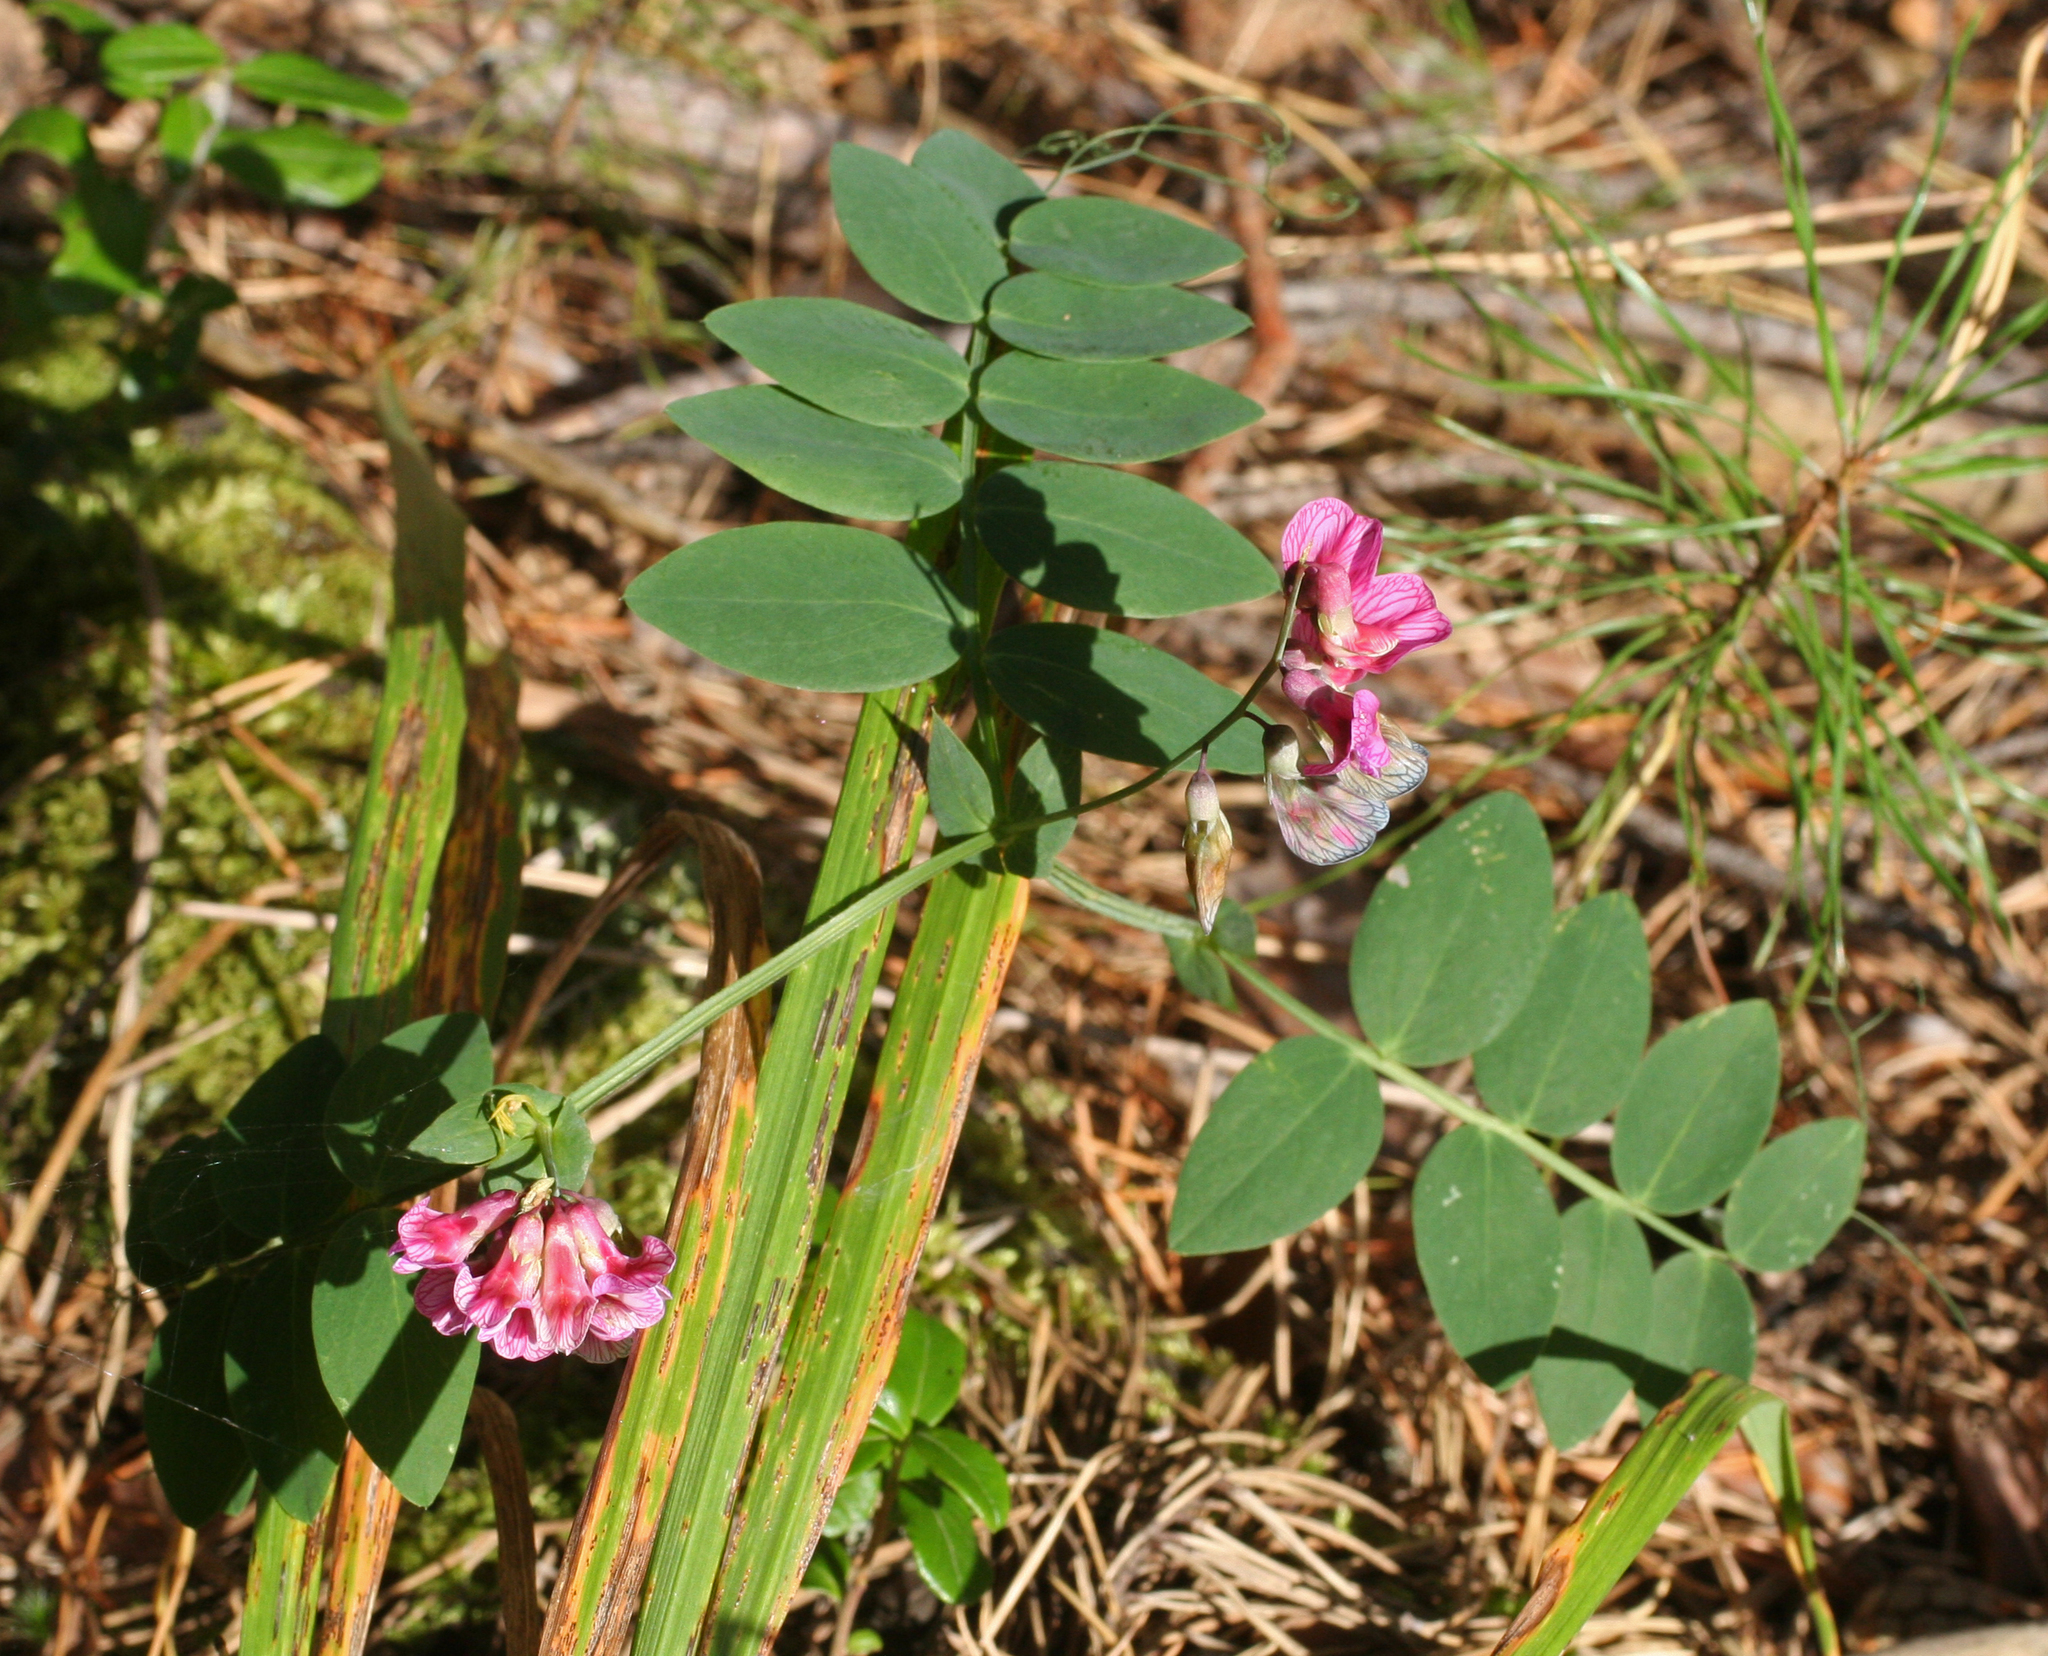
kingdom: Plantae
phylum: Tracheophyta
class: Magnoliopsida
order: Fabales
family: Fabaceae
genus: Lathyrus
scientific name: Lathyrus pisiformis
